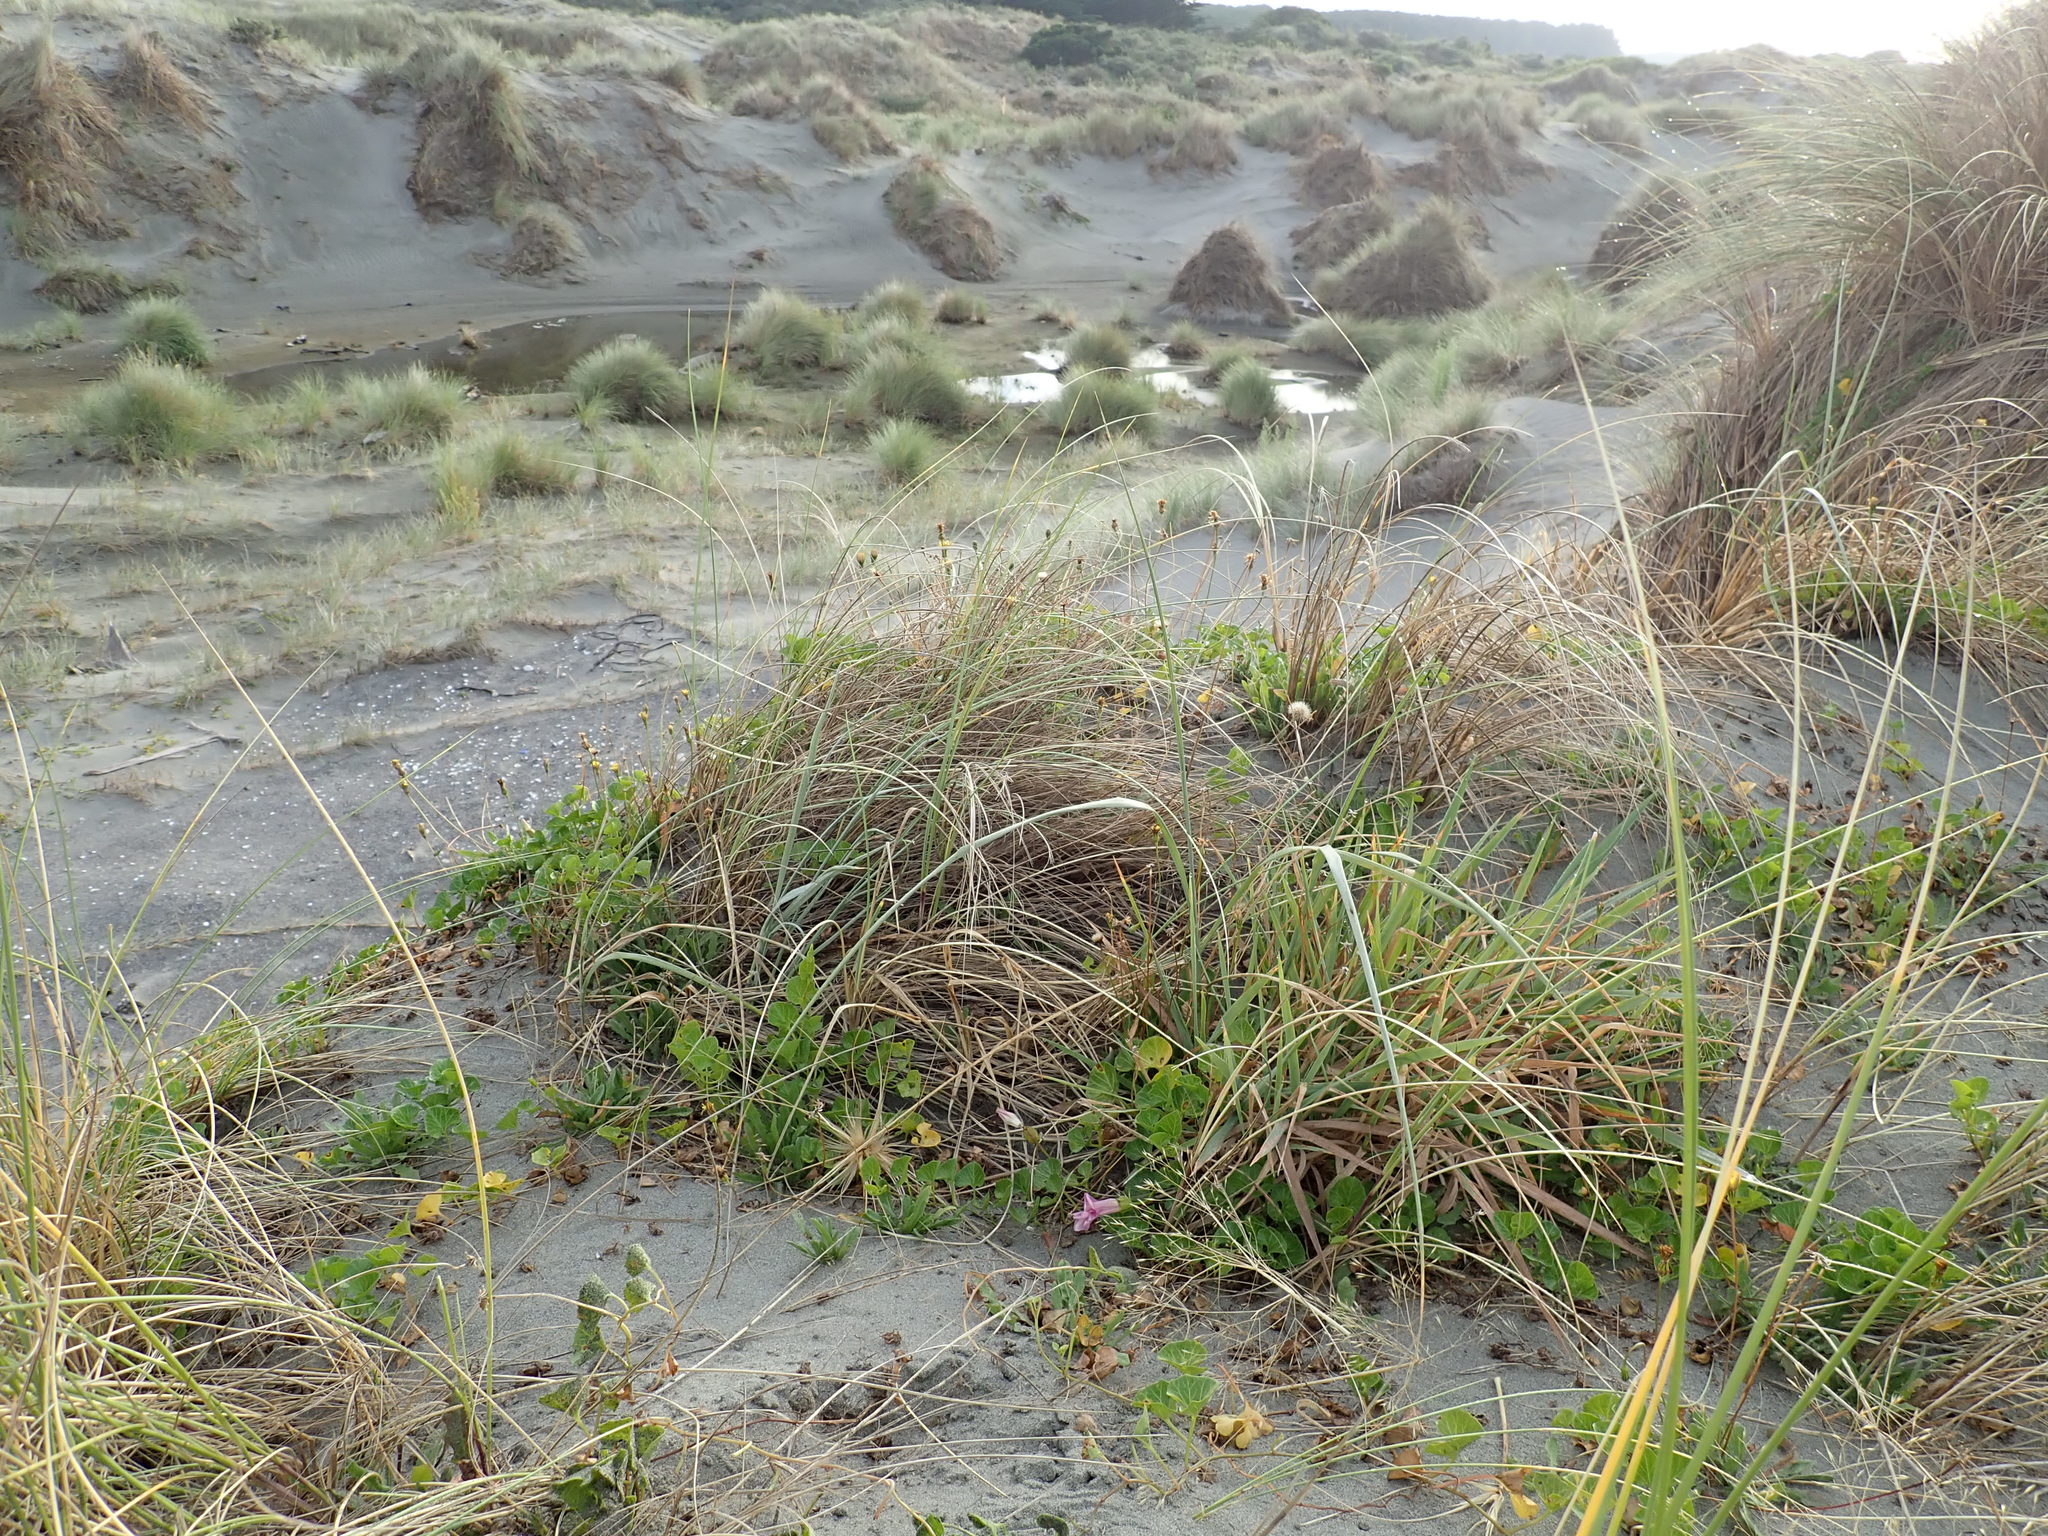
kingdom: Plantae
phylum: Tracheophyta
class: Magnoliopsida
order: Solanales
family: Convolvulaceae
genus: Calystegia
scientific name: Calystegia soldanella
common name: Sea bindweed
